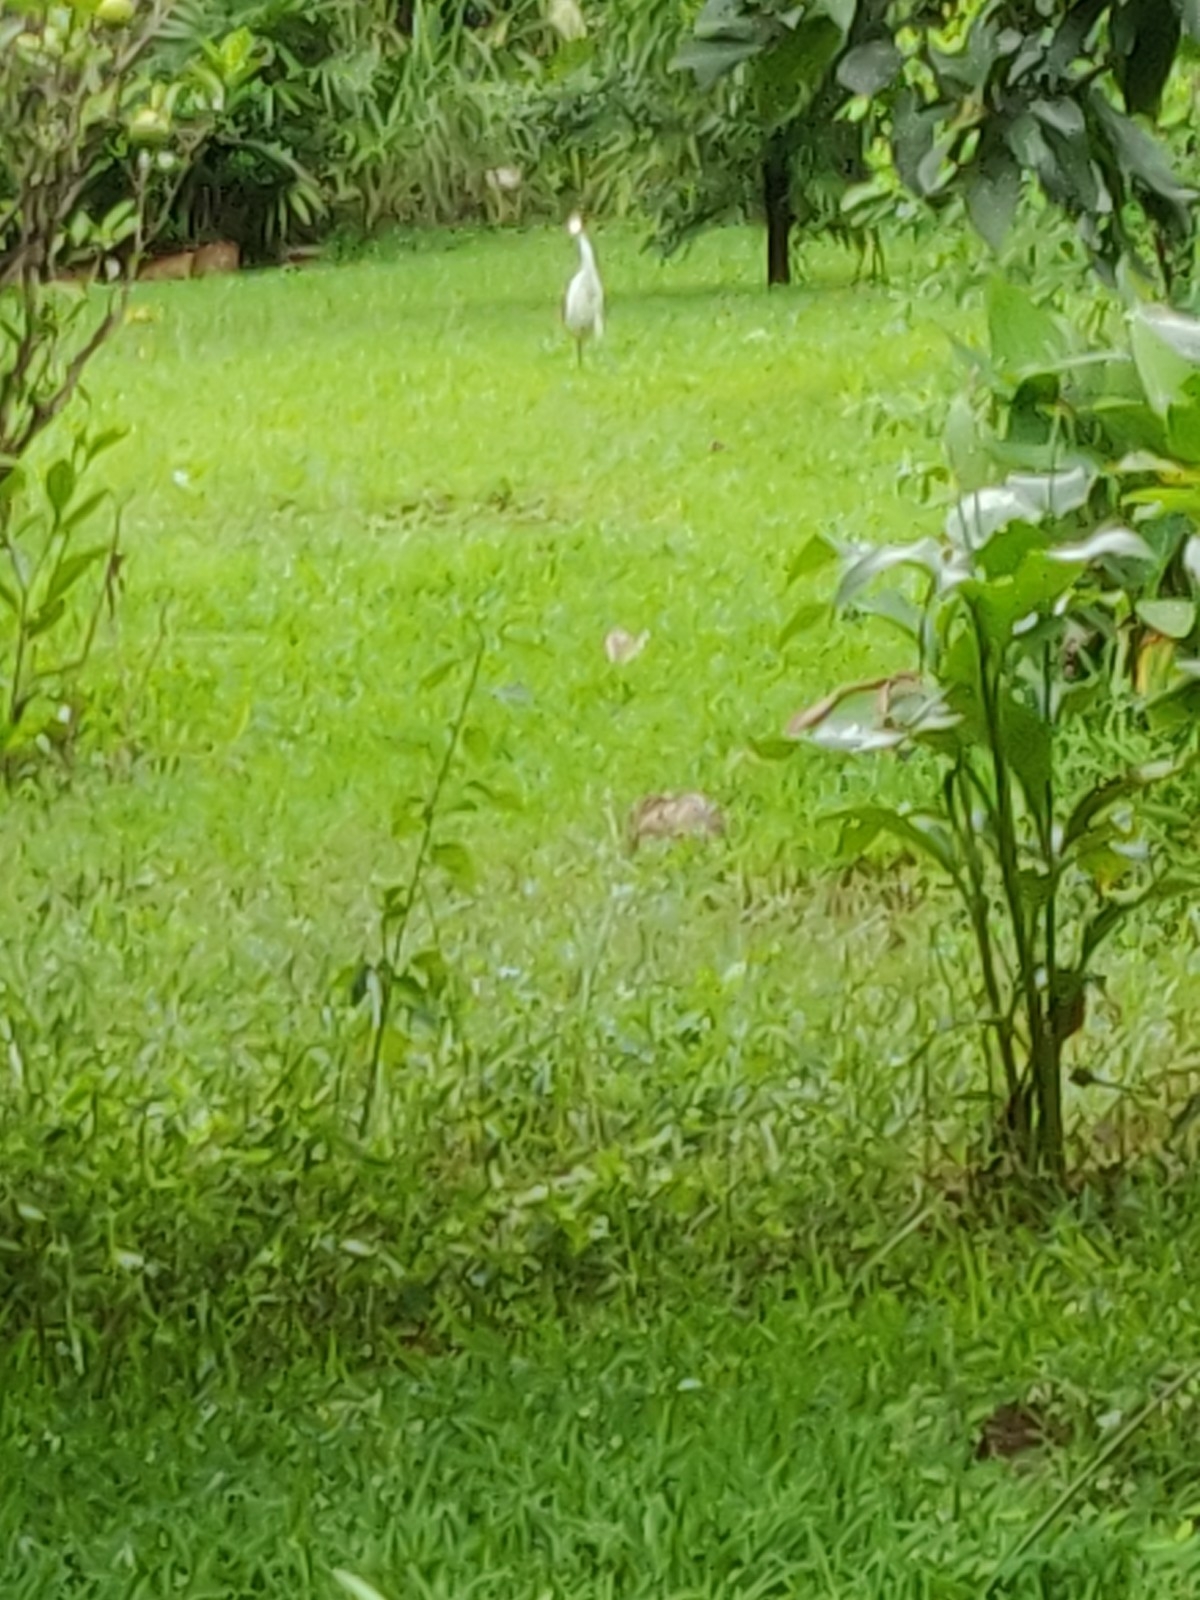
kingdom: Animalia
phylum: Chordata
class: Aves
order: Pelecaniformes
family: Ardeidae
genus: Egretta
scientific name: Egretta intermedia
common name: Intermediate egret
